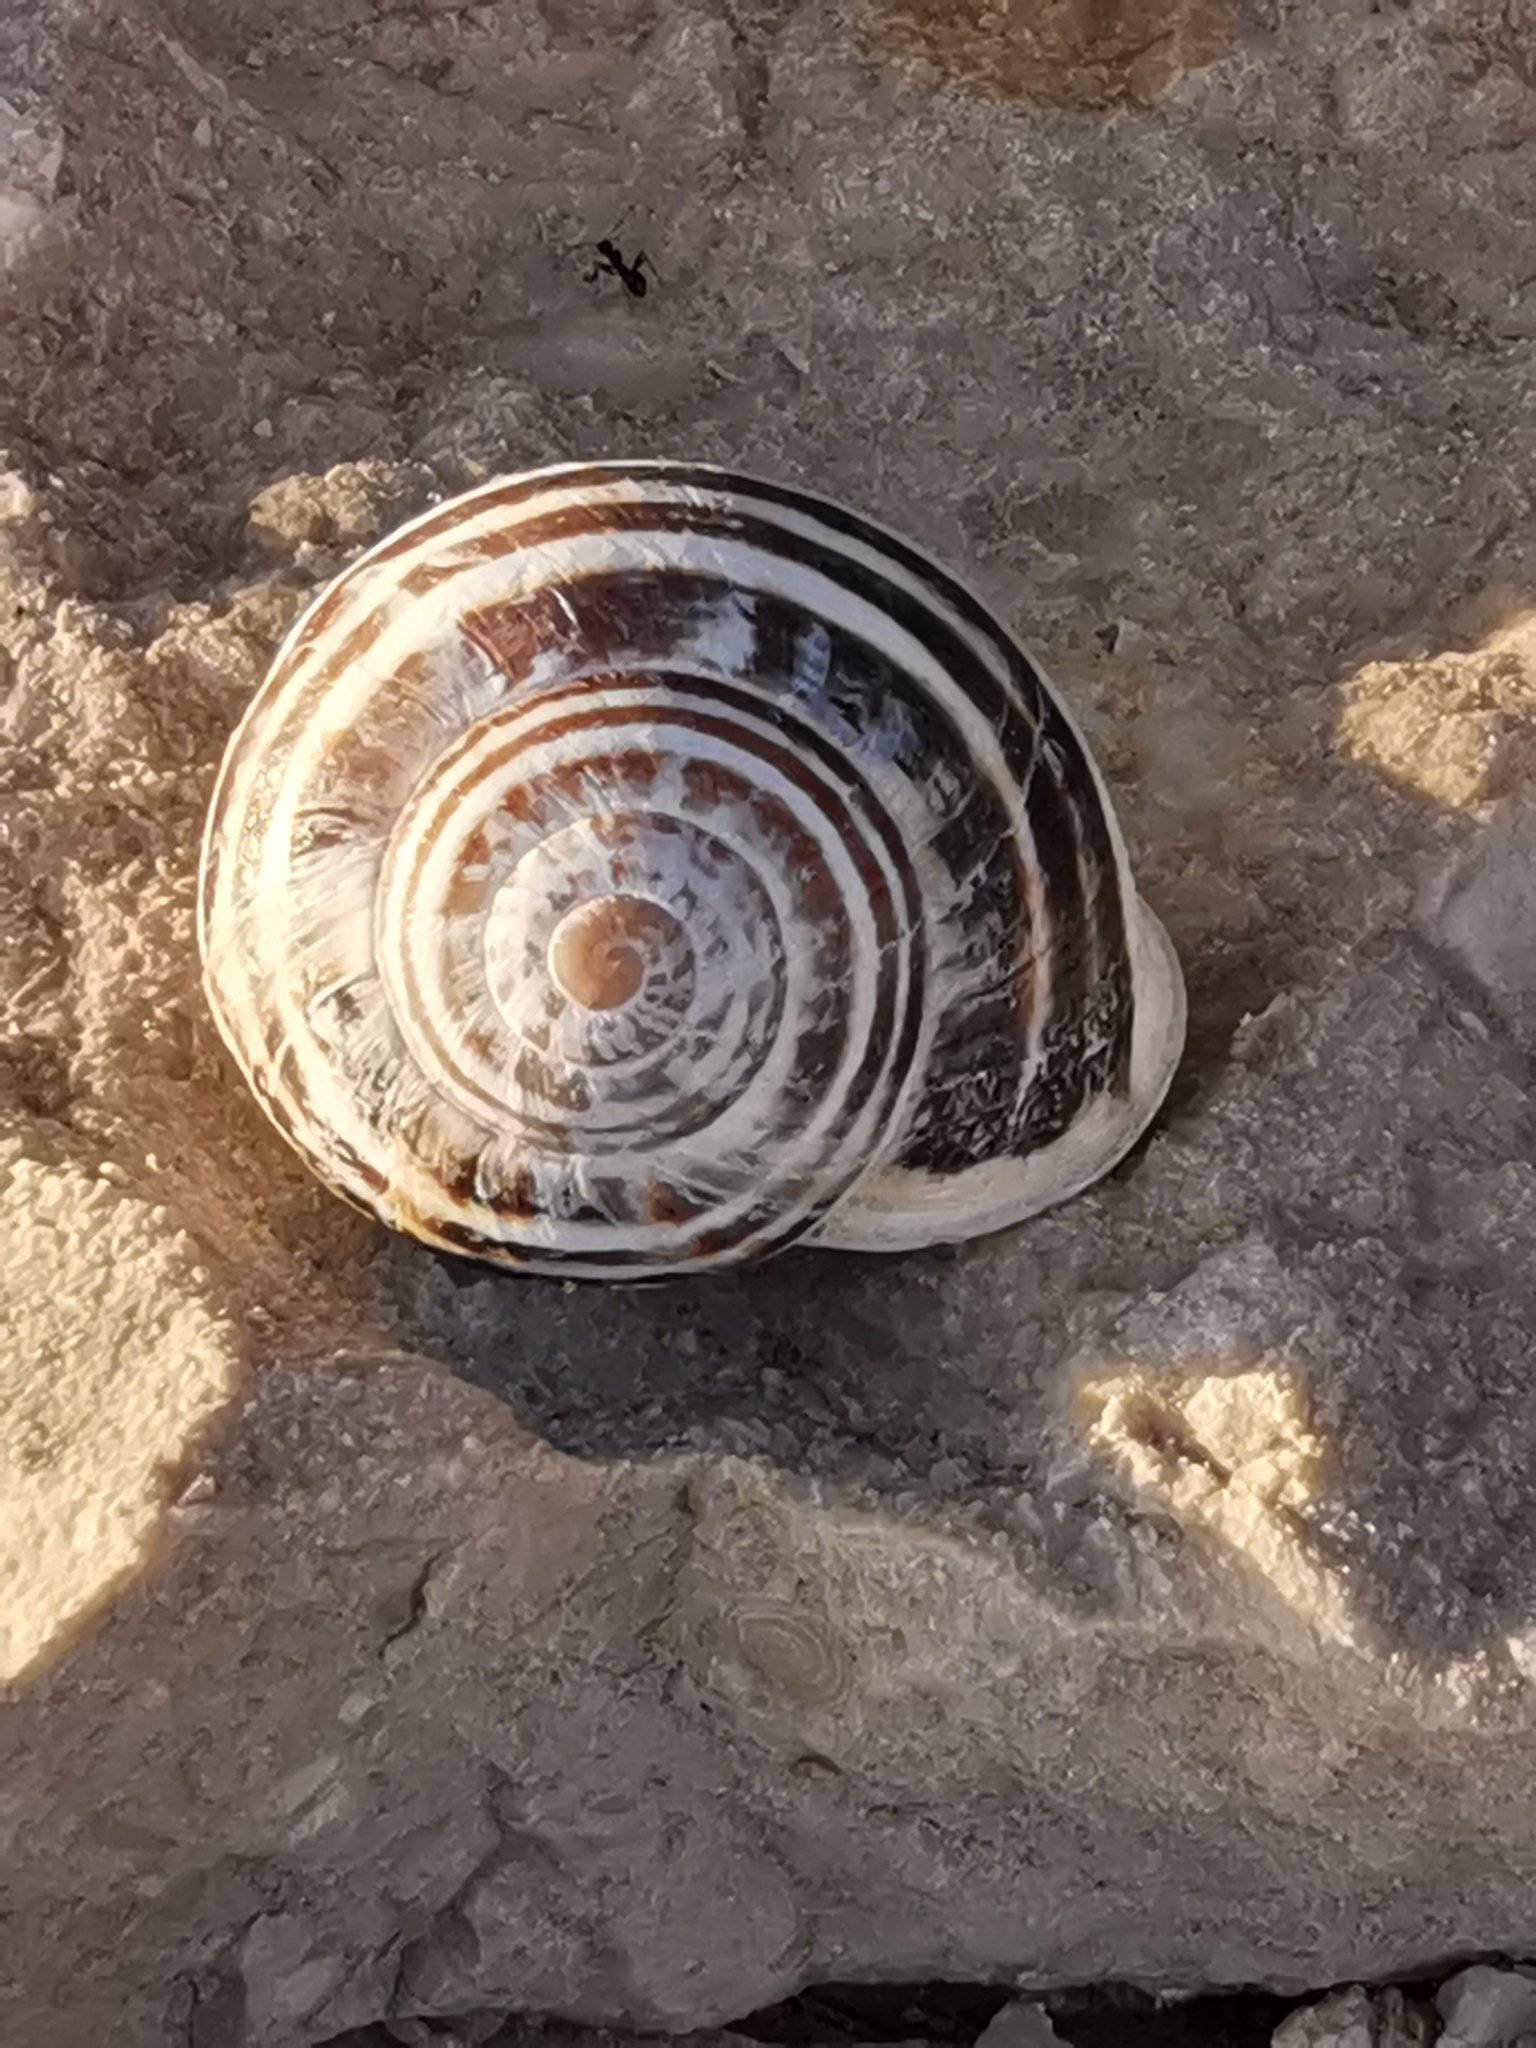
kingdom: Animalia
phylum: Mollusca
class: Gastropoda
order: Stylommatophora
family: Helicidae
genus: Eobania
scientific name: Eobania vermiculata
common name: Chocolateband snail
